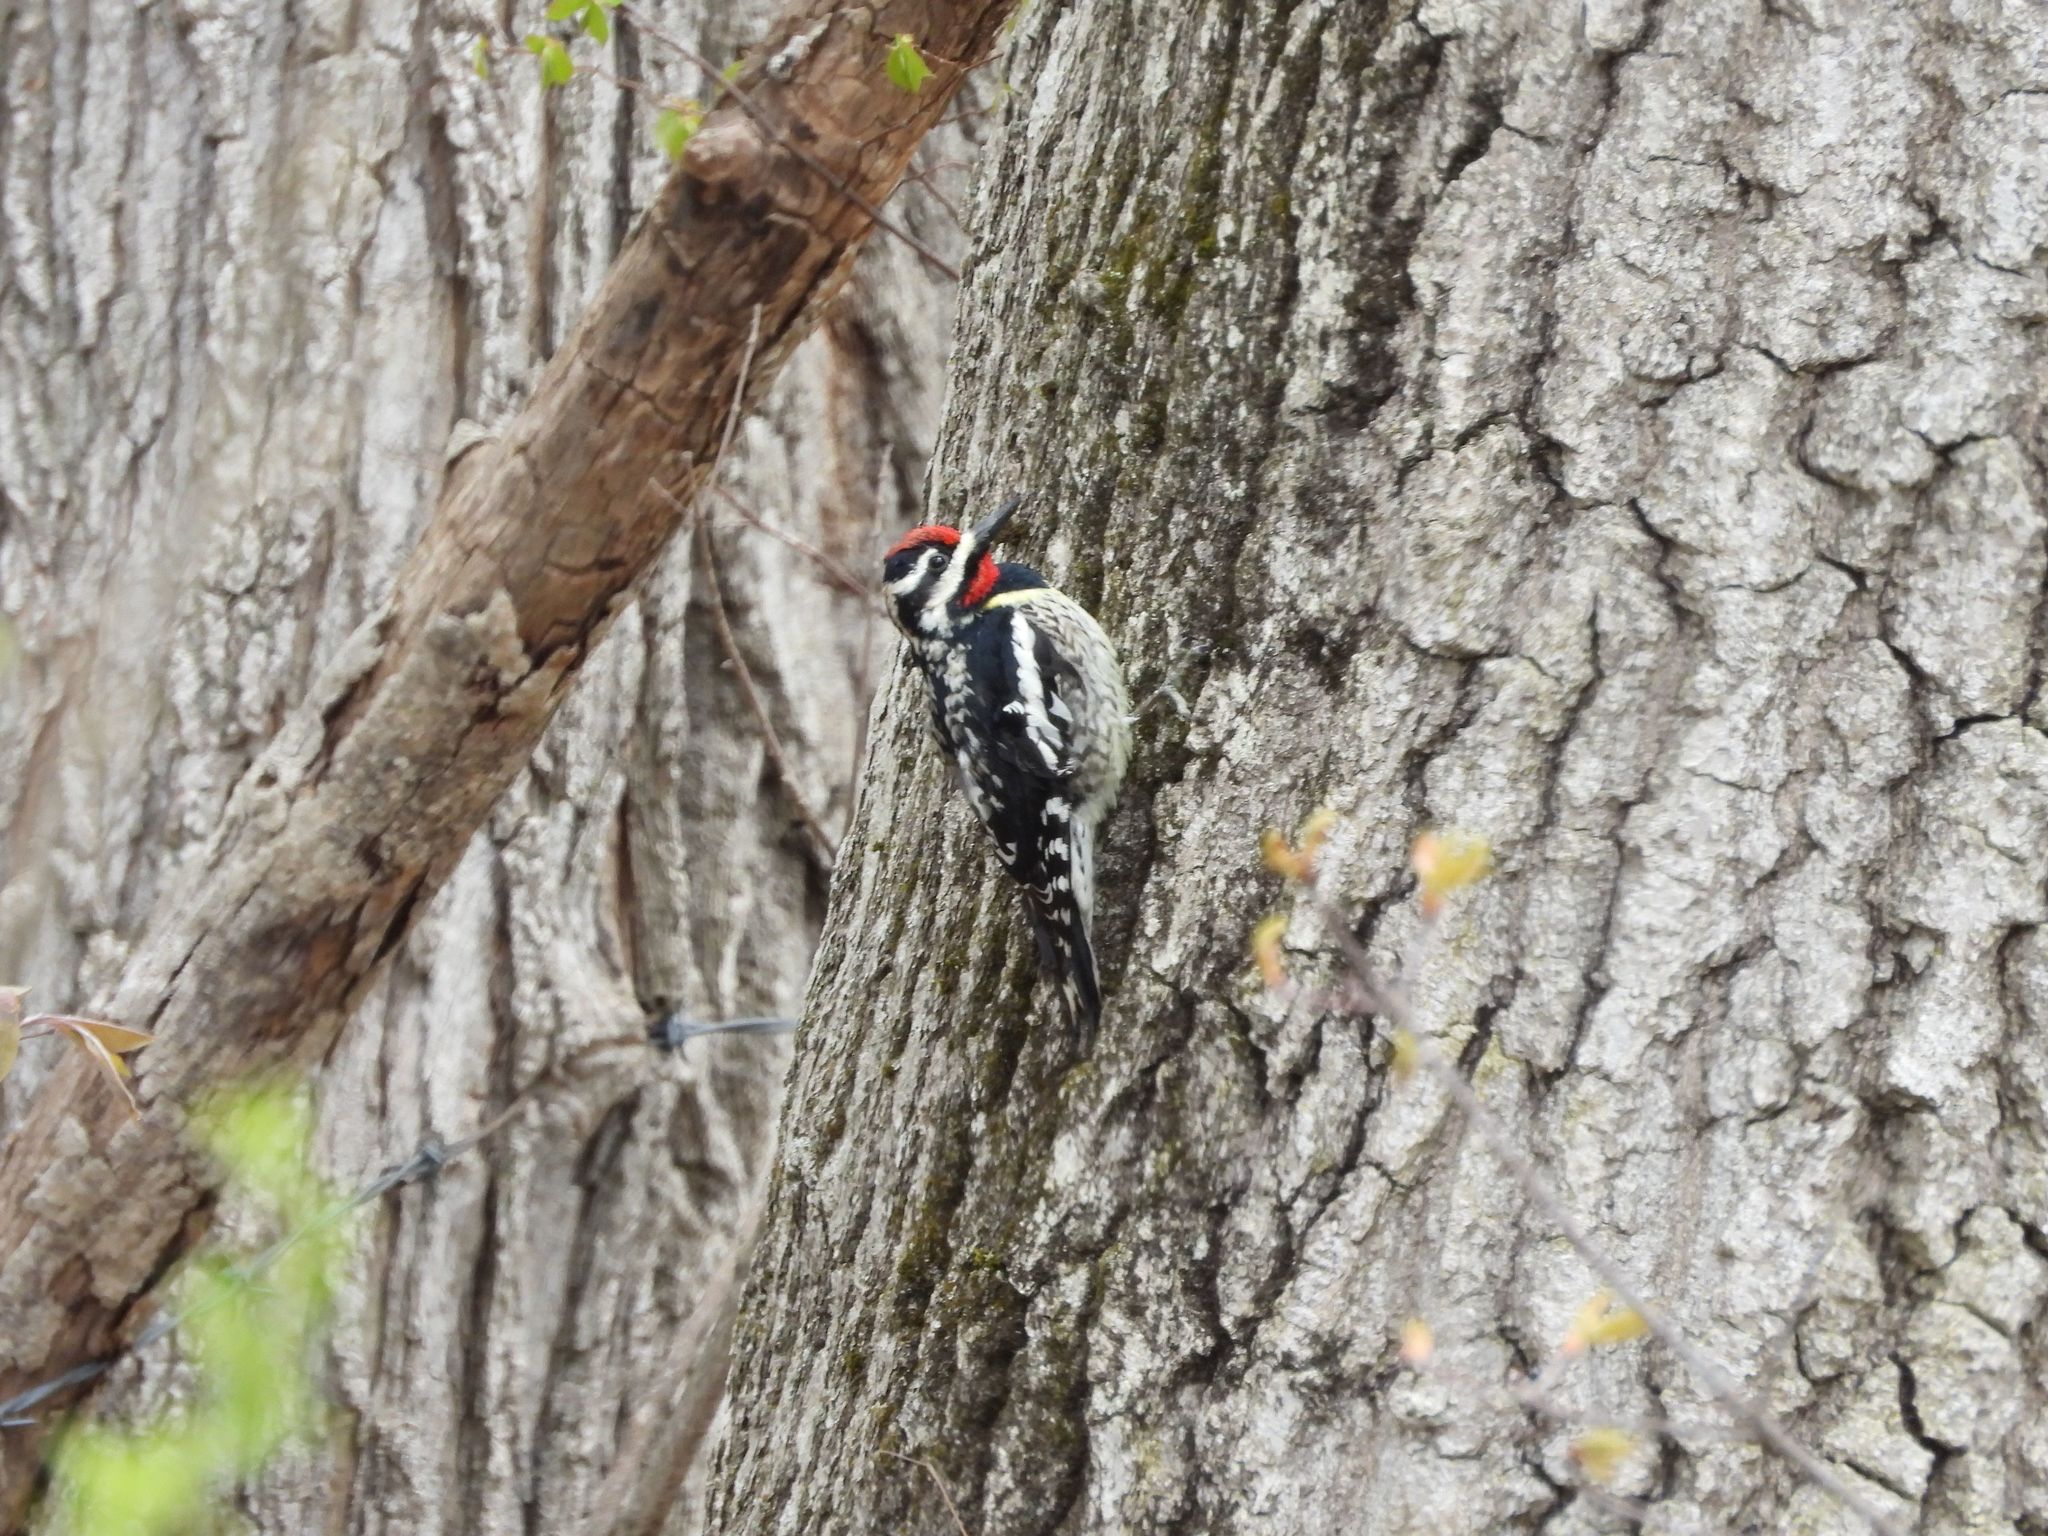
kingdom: Animalia
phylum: Chordata
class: Aves
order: Piciformes
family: Picidae
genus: Sphyrapicus
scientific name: Sphyrapicus varius
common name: Yellow-bellied sapsucker
